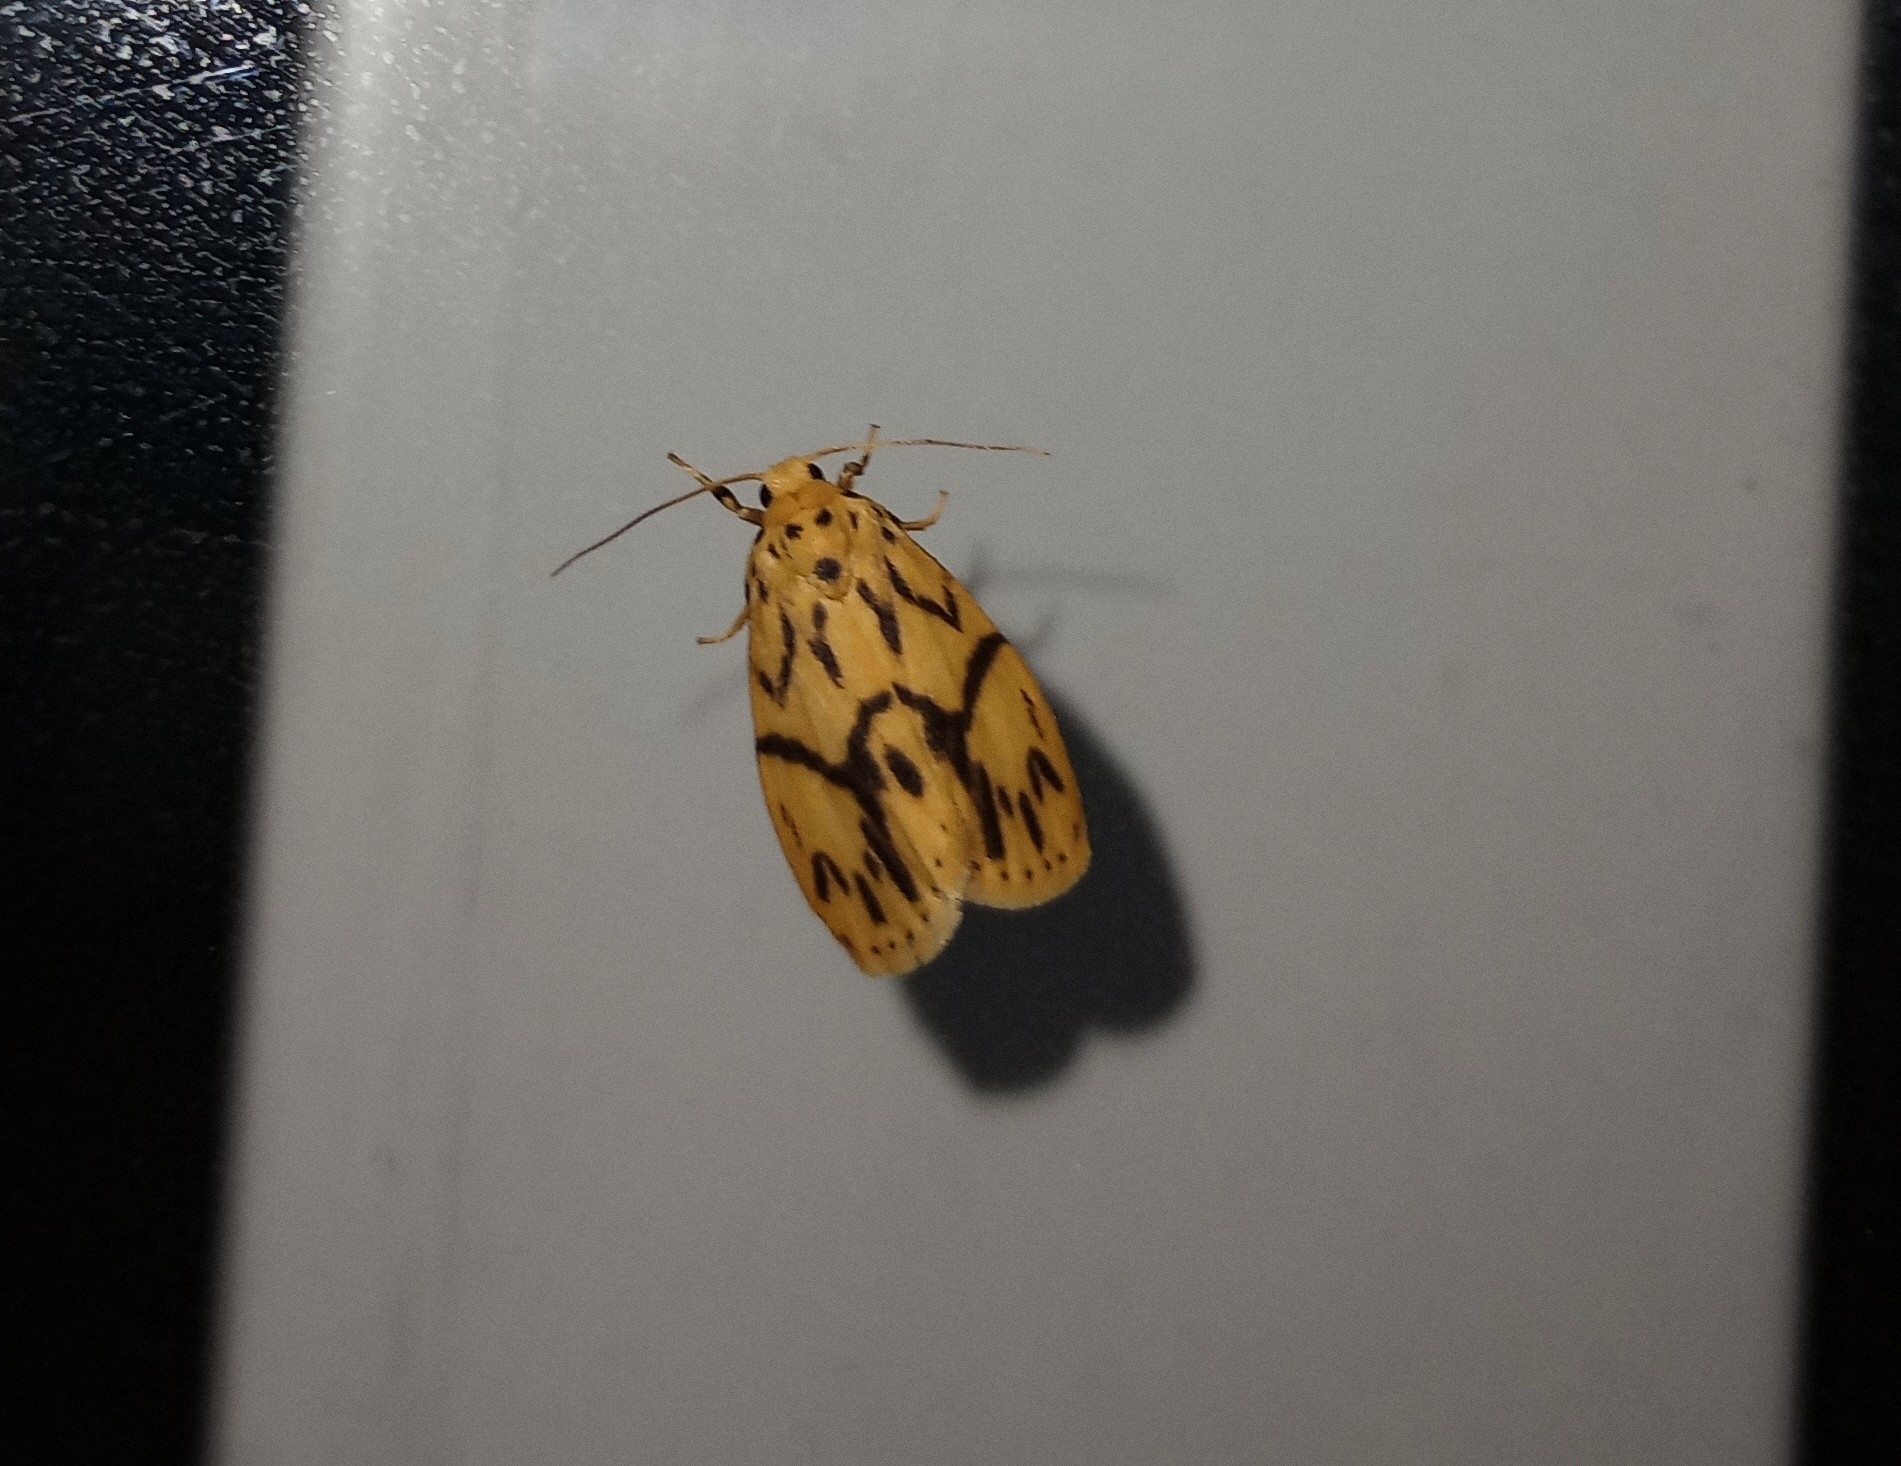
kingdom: Animalia
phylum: Arthropoda
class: Insecta
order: Lepidoptera
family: Erebidae
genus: Miltochrista
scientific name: Miltochrista terminospota
